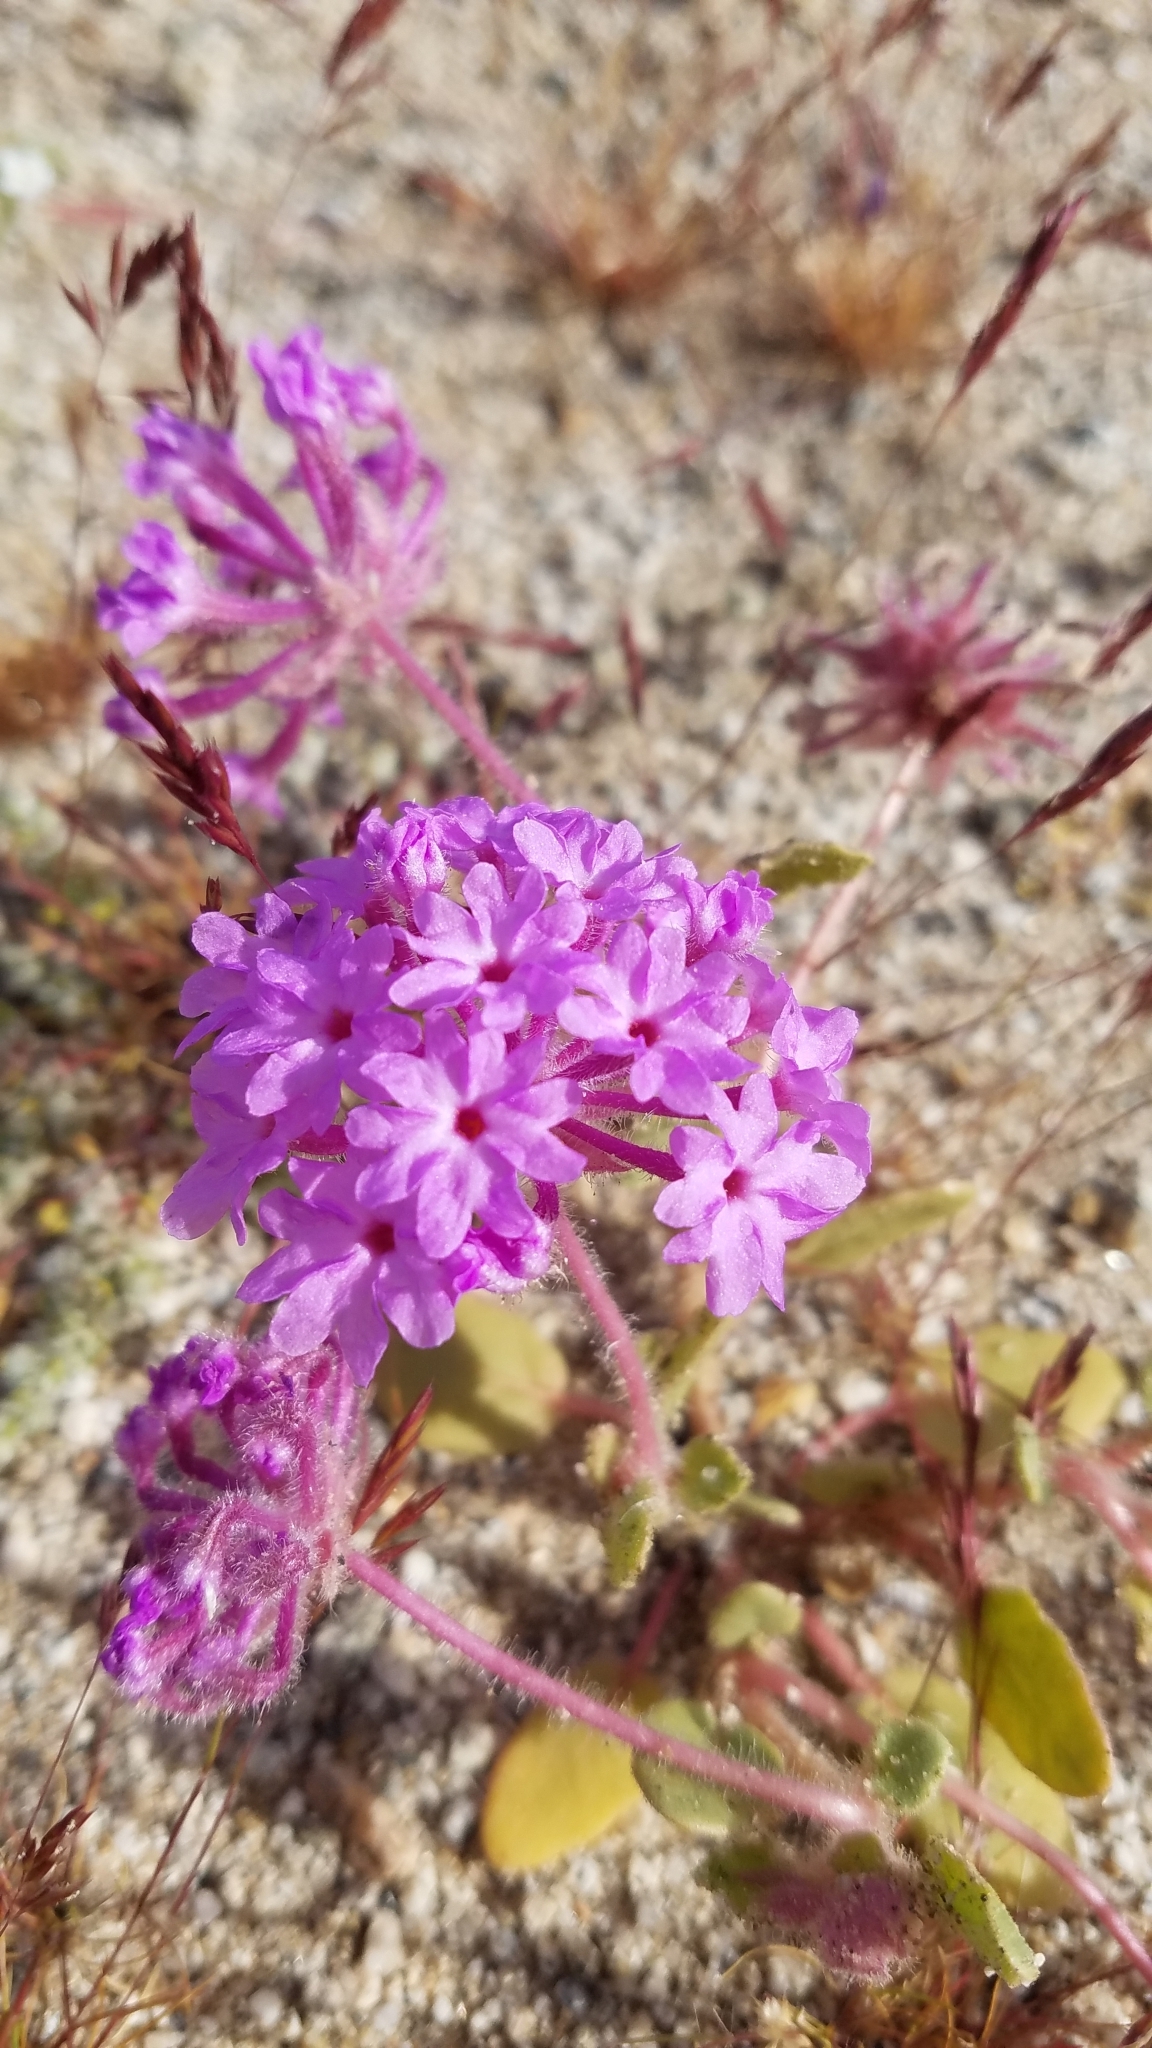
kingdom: Plantae
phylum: Tracheophyta
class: Magnoliopsida
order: Caryophyllales
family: Nyctaginaceae
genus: Abronia
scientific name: Abronia villosa
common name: Desert sand-verbena
